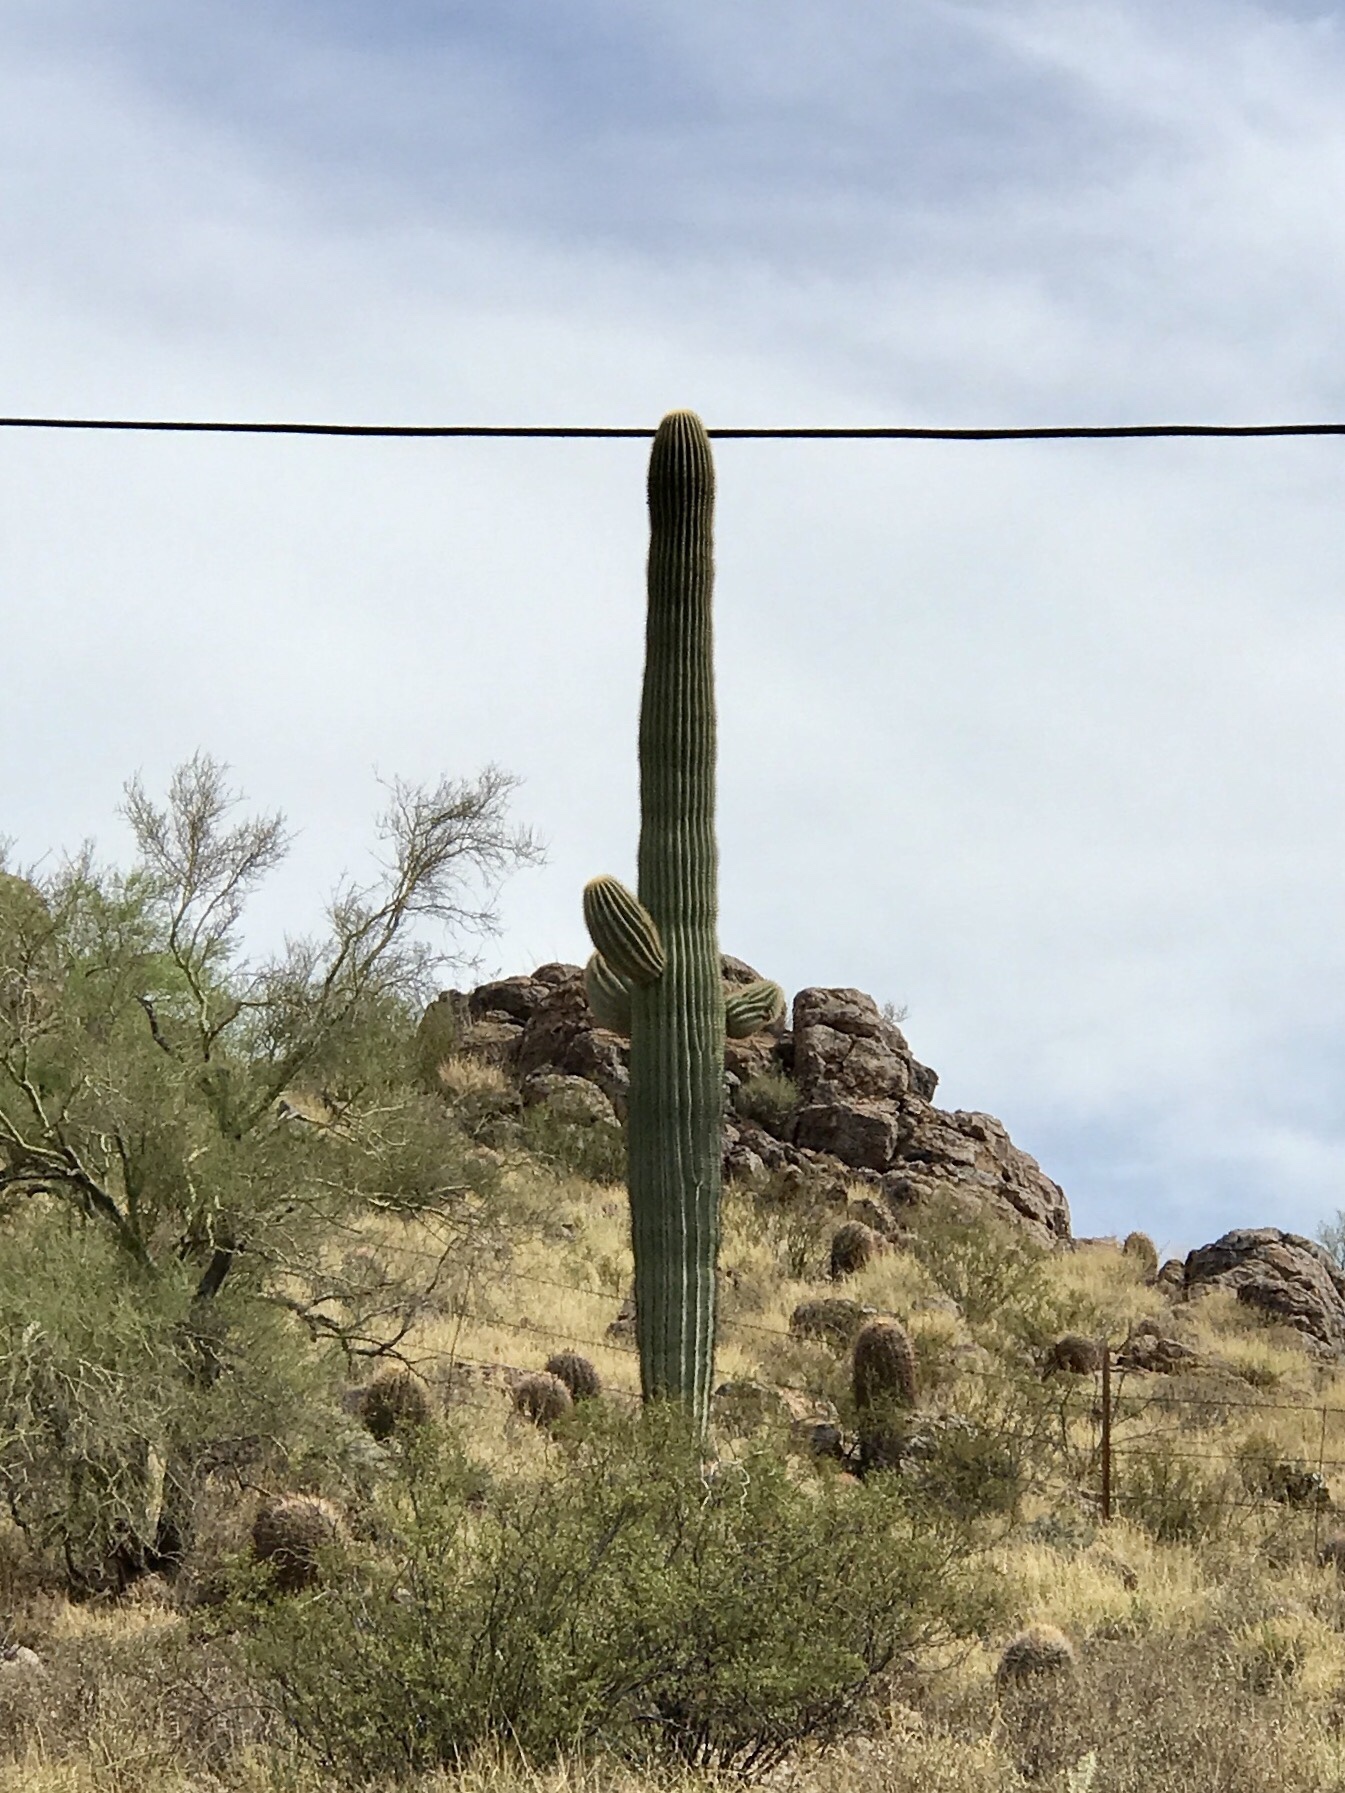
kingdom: Plantae
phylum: Tracheophyta
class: Magnoliopsida
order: Caryophyllales
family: Cactaceae
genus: Carnegiea
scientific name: Carnegiea gigantea
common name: Saguaro
